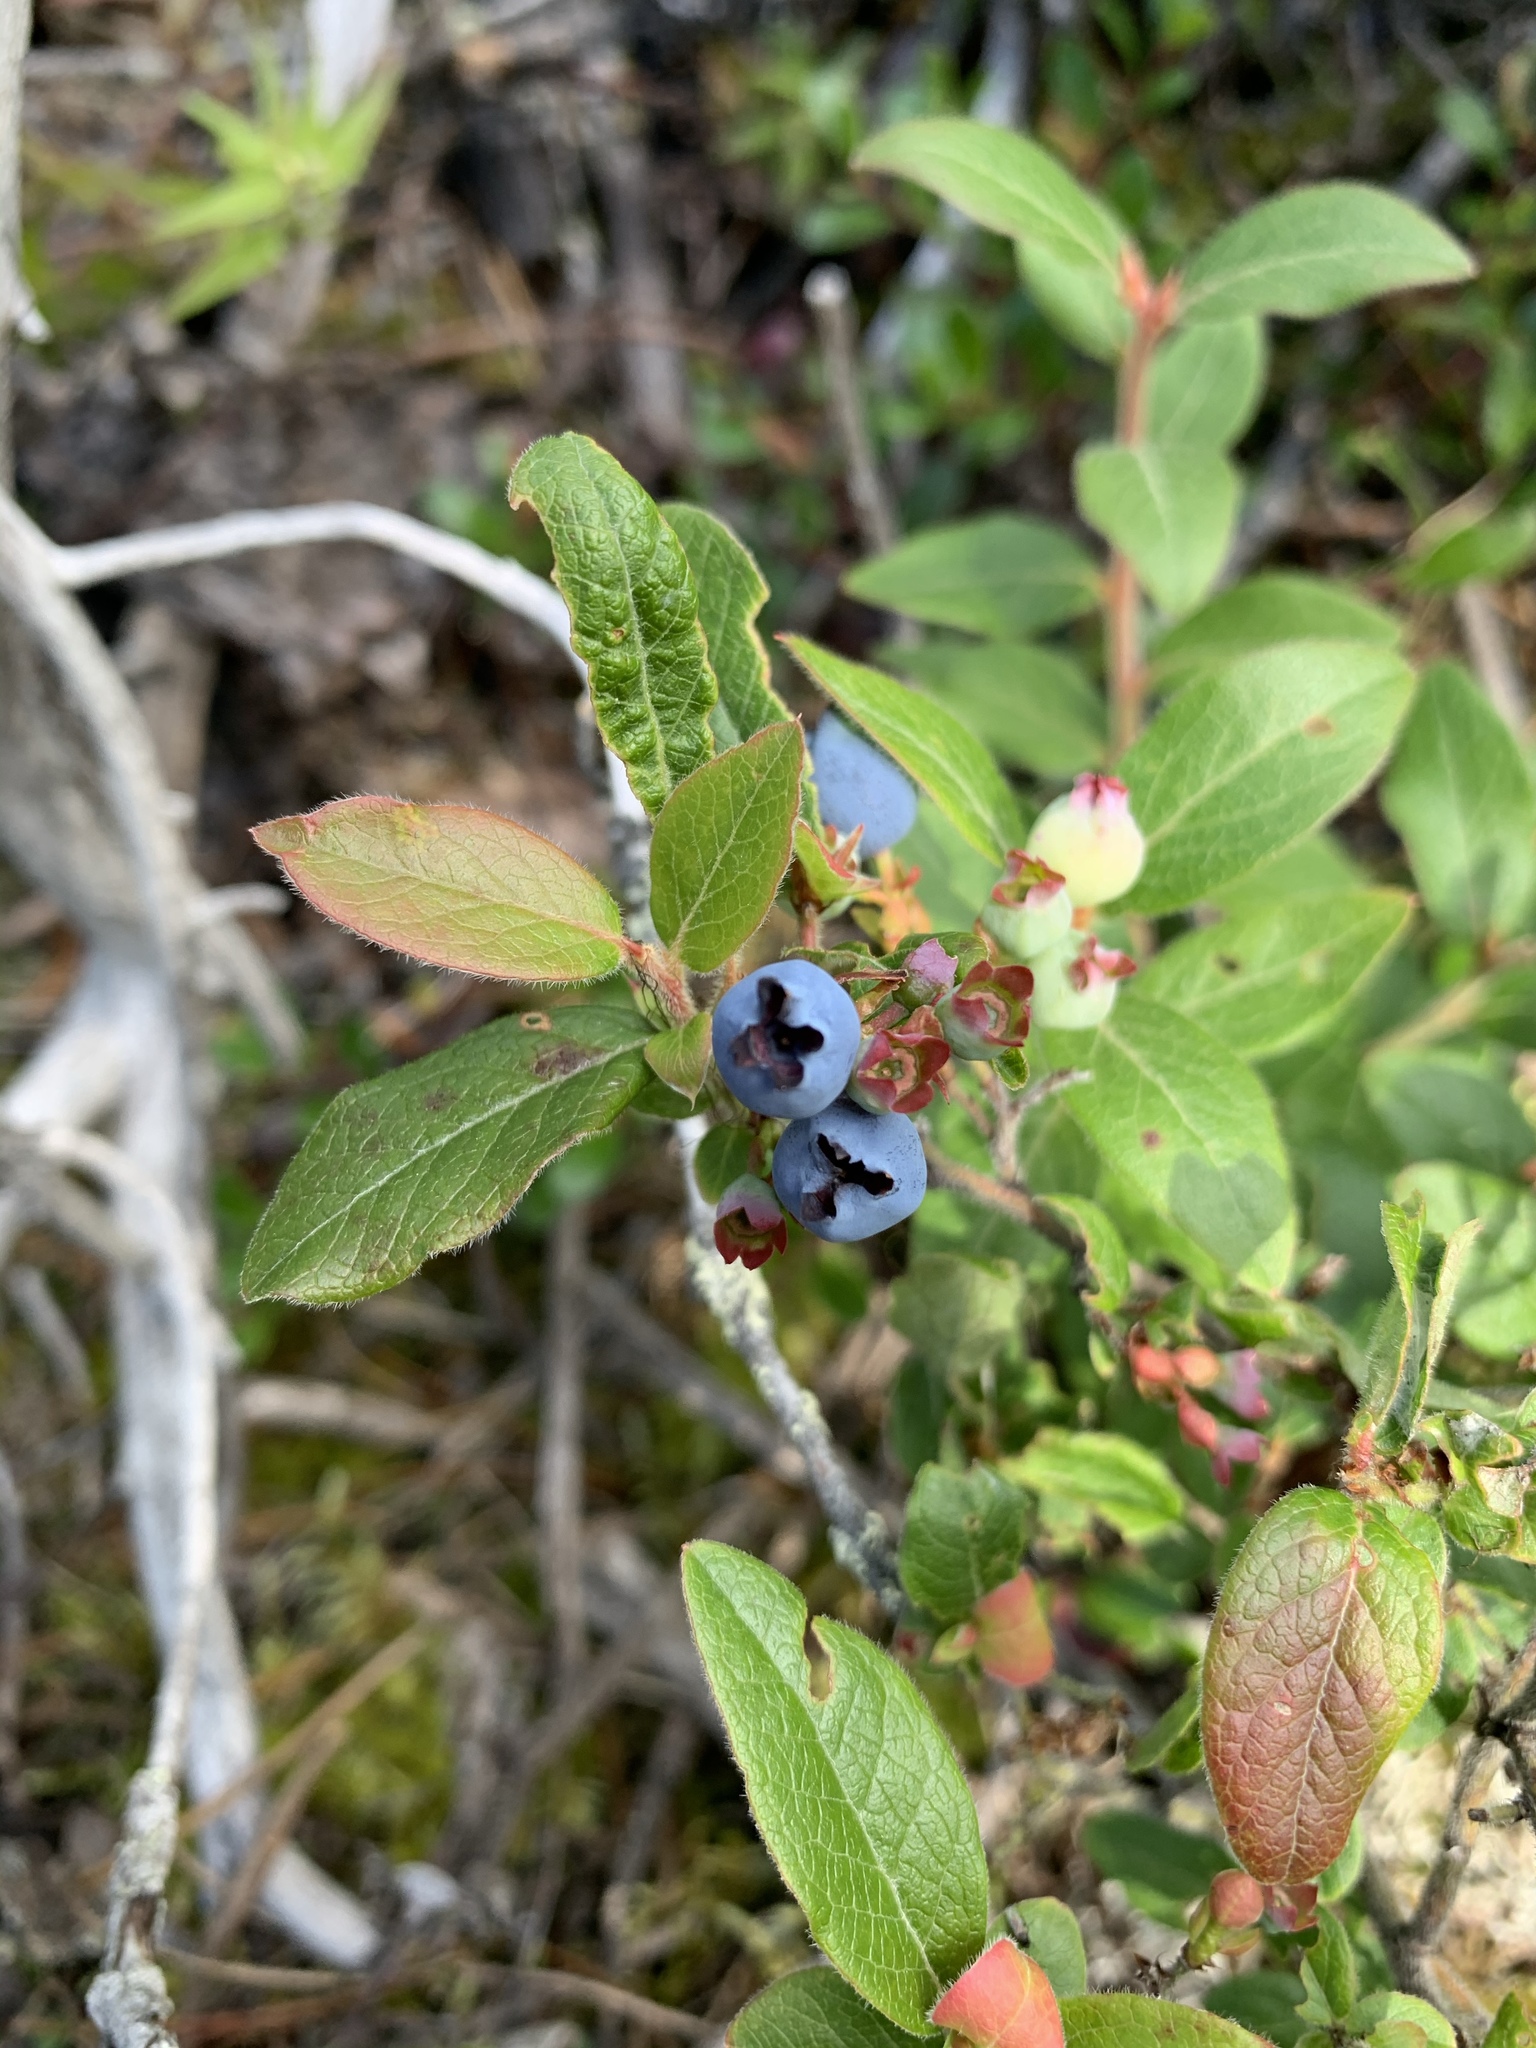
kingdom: Plantae
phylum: Tracheophyta
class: Magnoliopsida
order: Ericales
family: Ericaceae
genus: Vaccinium
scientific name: Vaccinium myrtilloides
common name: Canada blueberry
